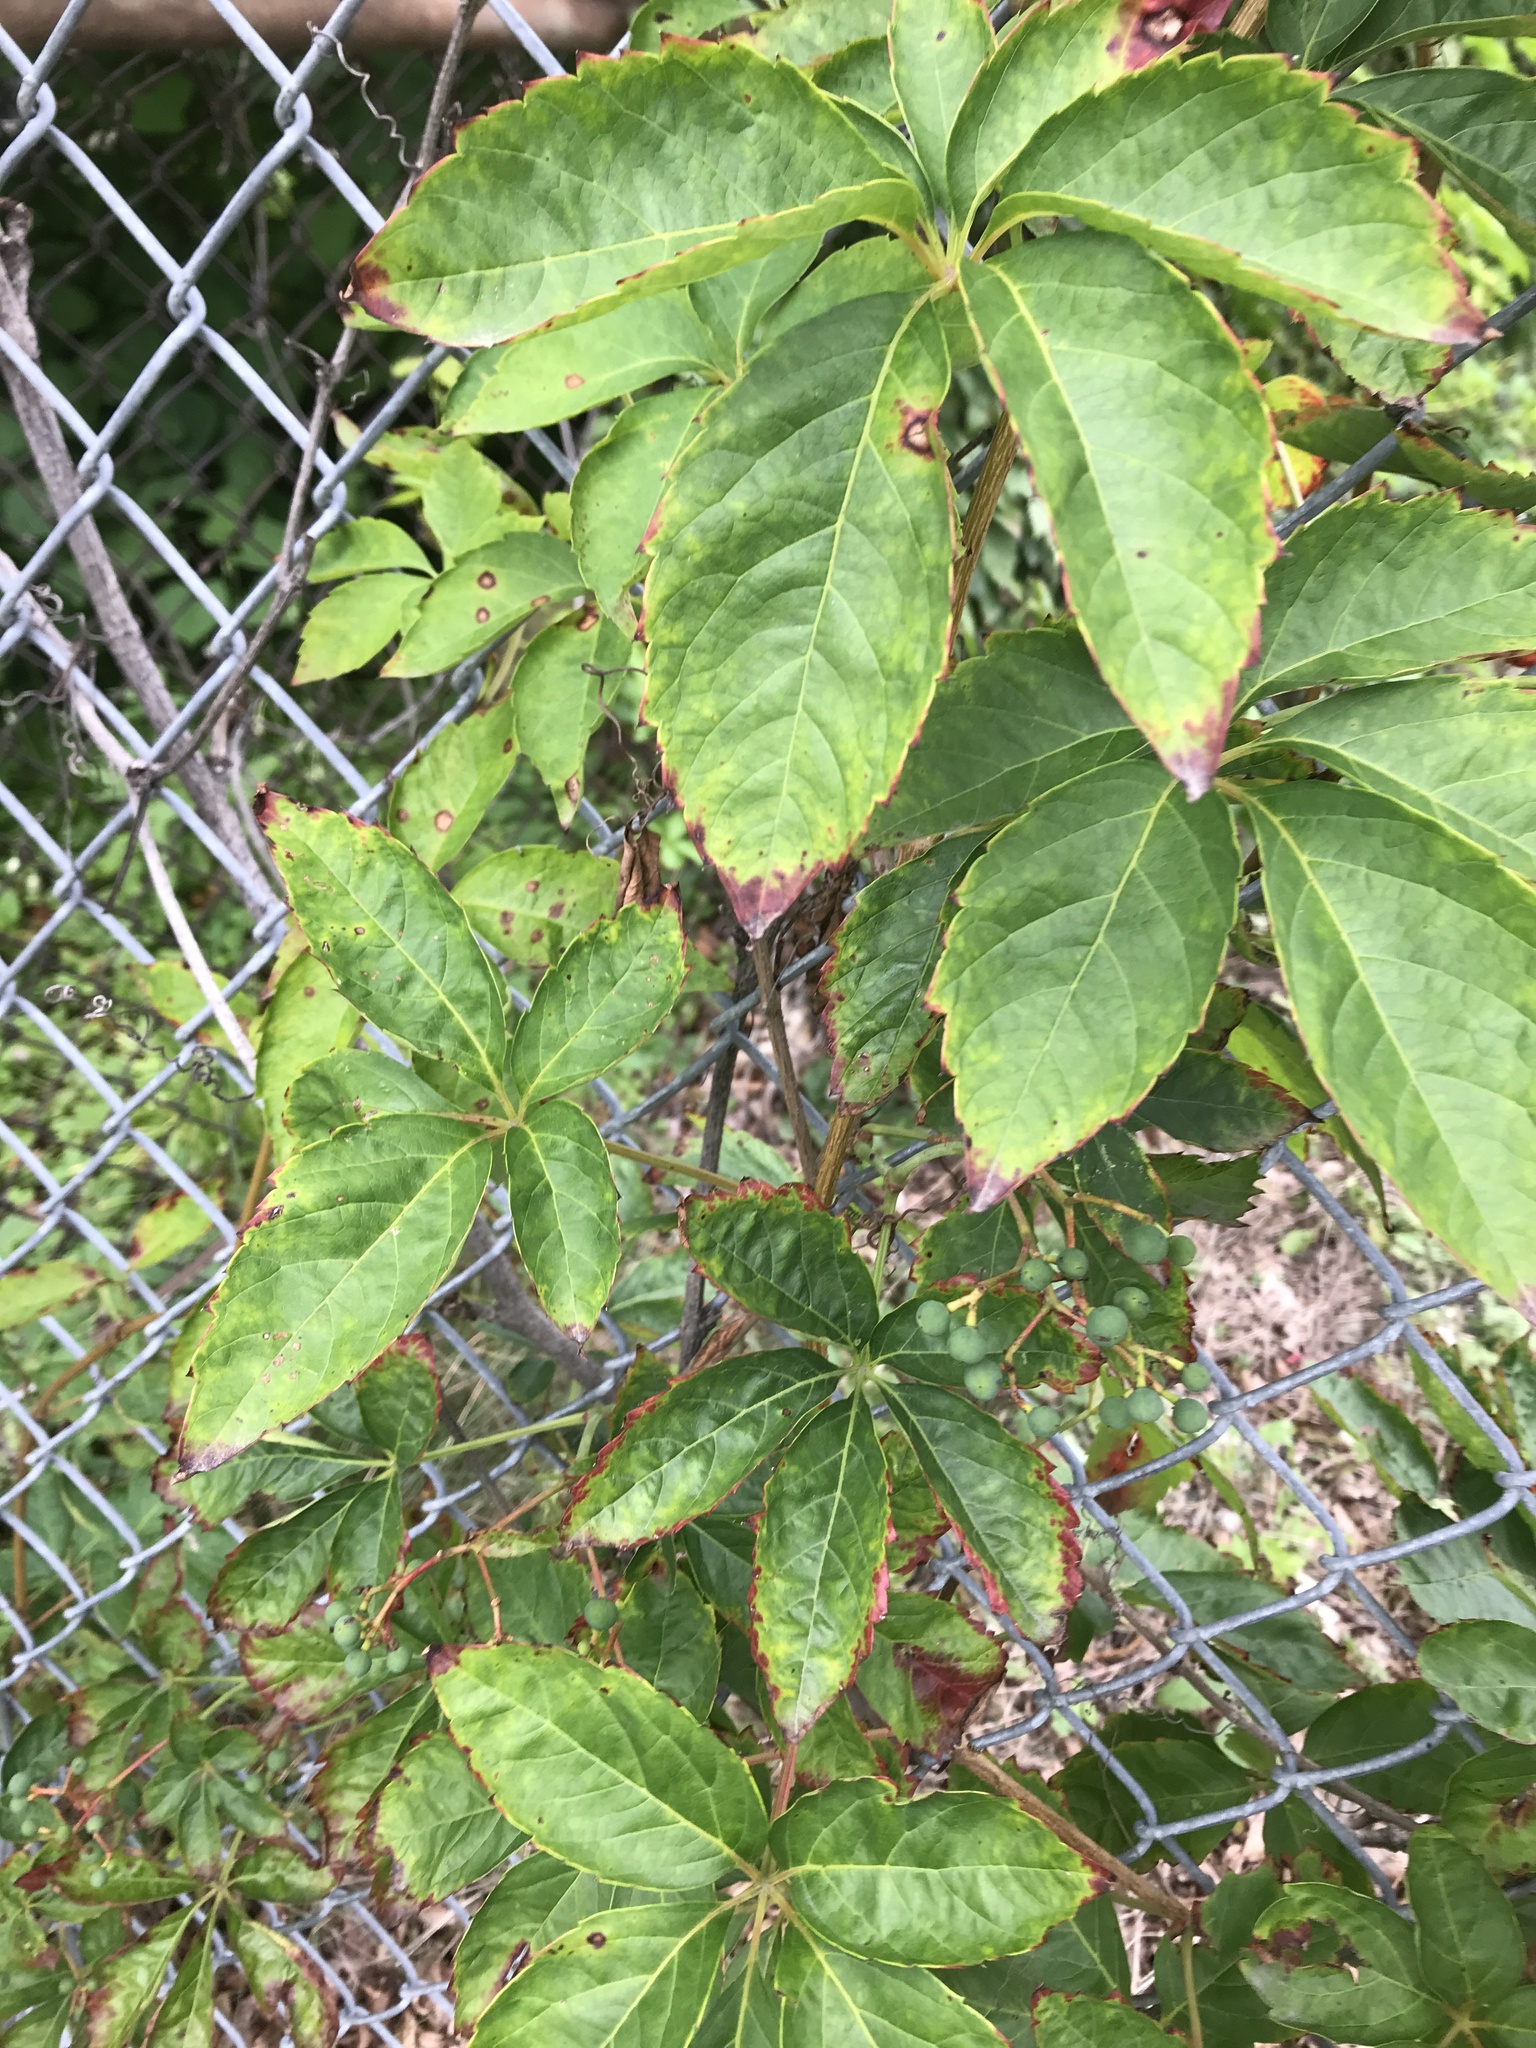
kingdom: Plantae
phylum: Tracheophyta
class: Magnoliopsida
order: Vitales
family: Vitaceae
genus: Parthenocissus
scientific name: Parthenocissus quinquefolia
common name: Virginia-creeper
